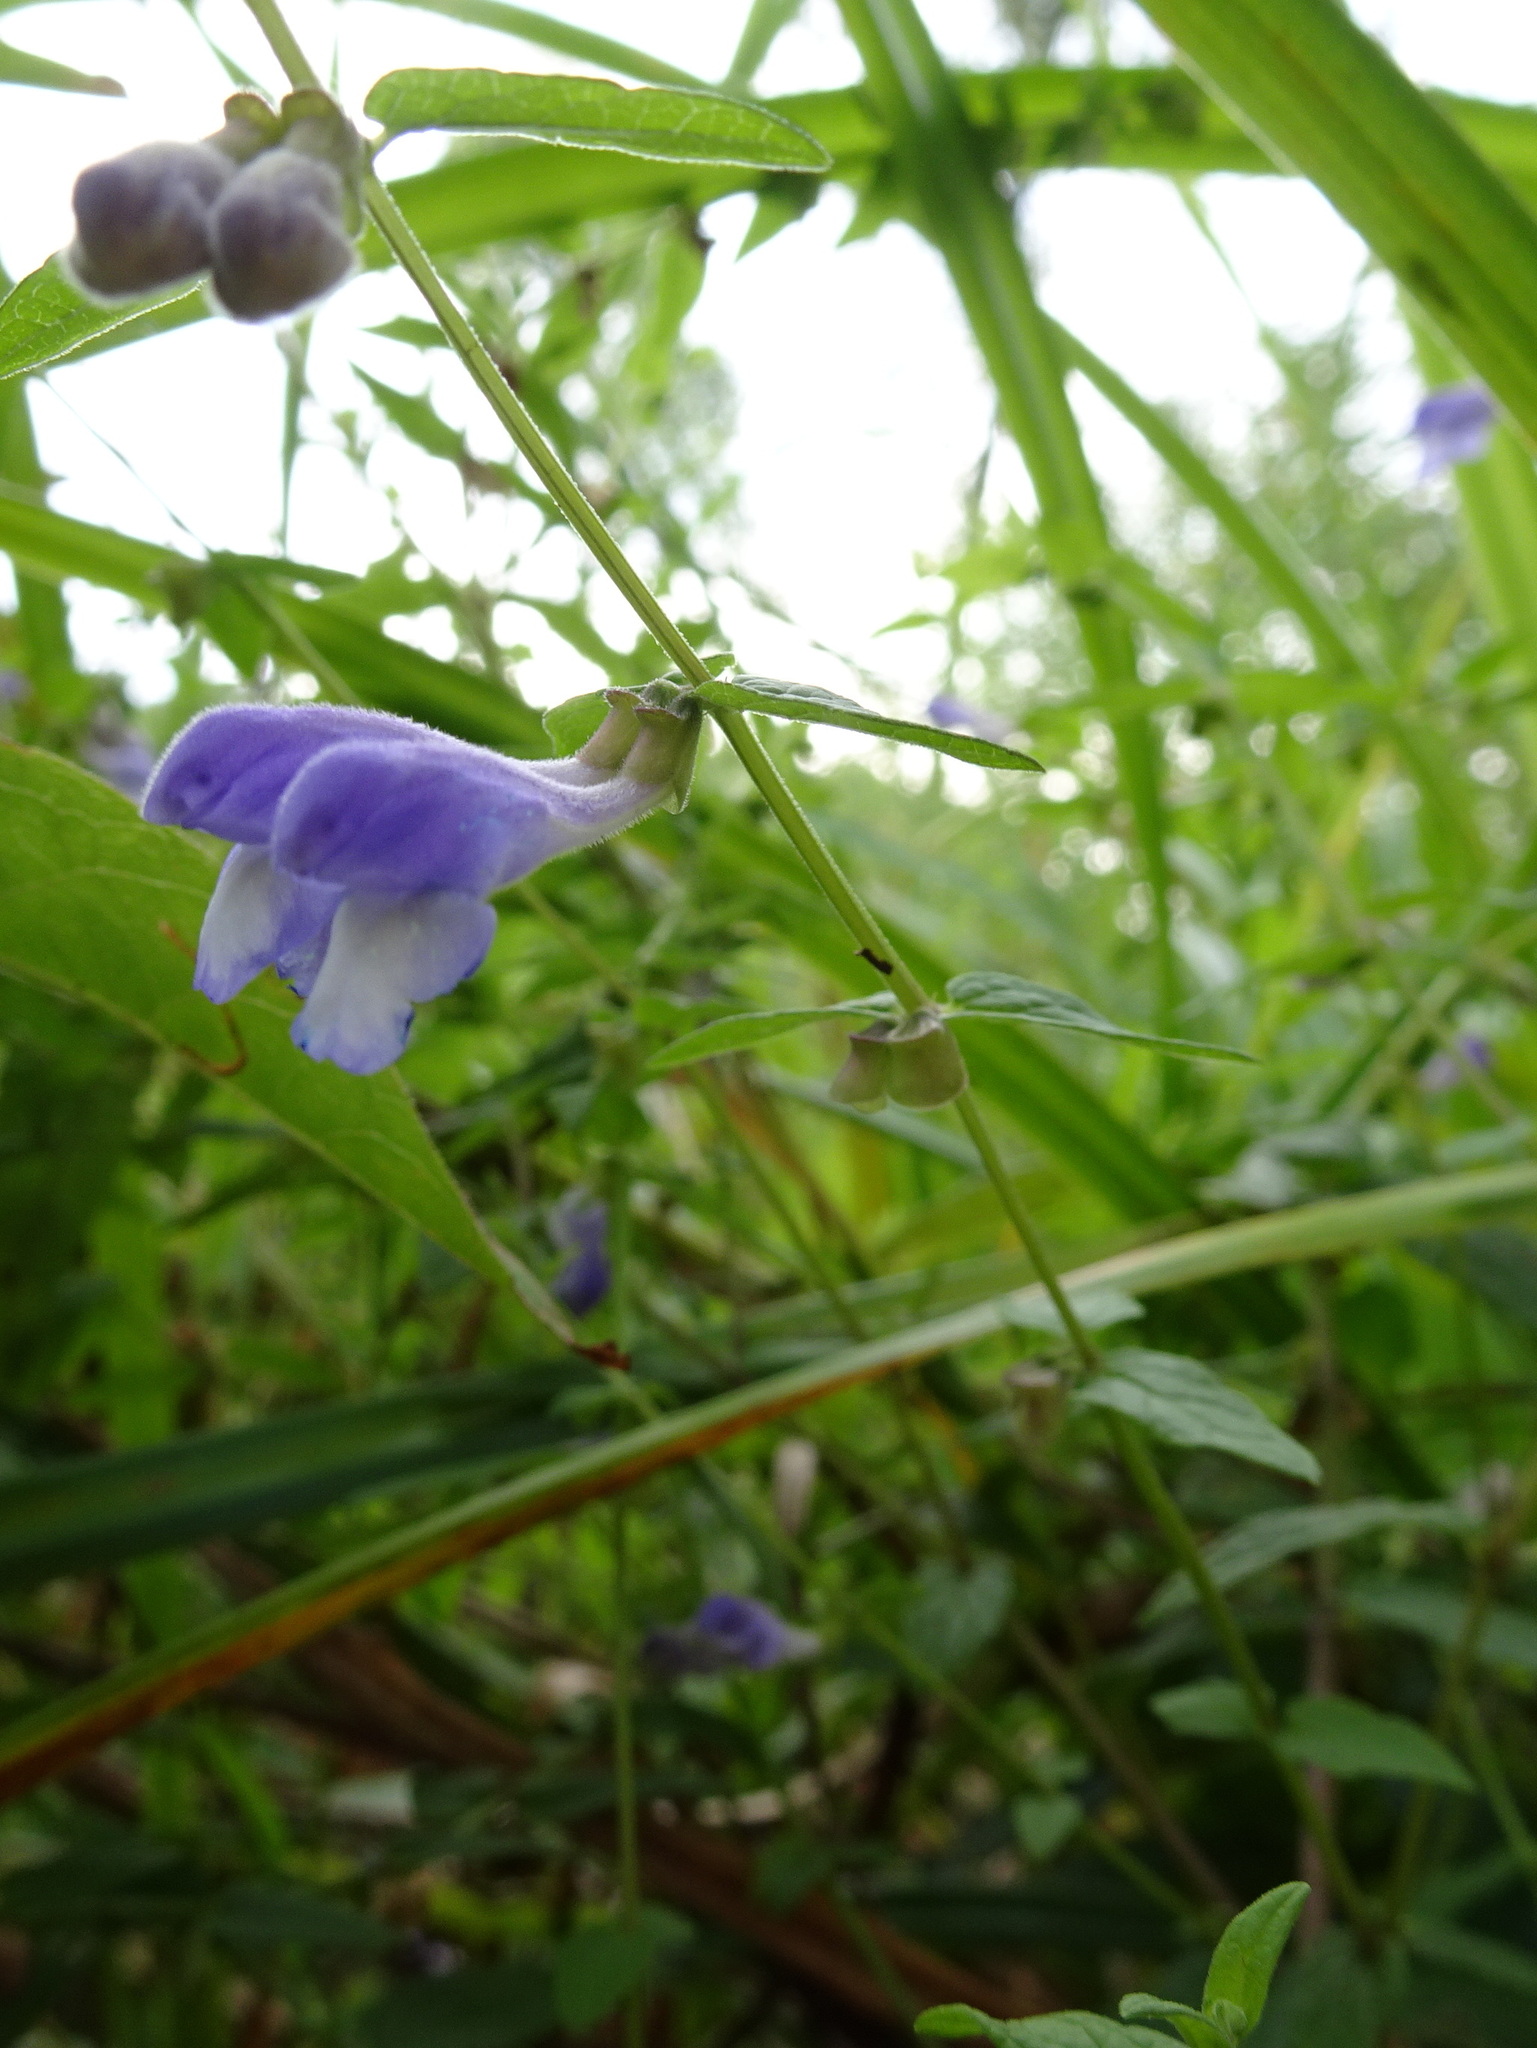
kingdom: Plantae
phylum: Tracheophyta
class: Magnoliopsida
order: Lamiales
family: Lamiaceae
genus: Scutellaria
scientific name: Scutellaria galericulata
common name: Skullcap
